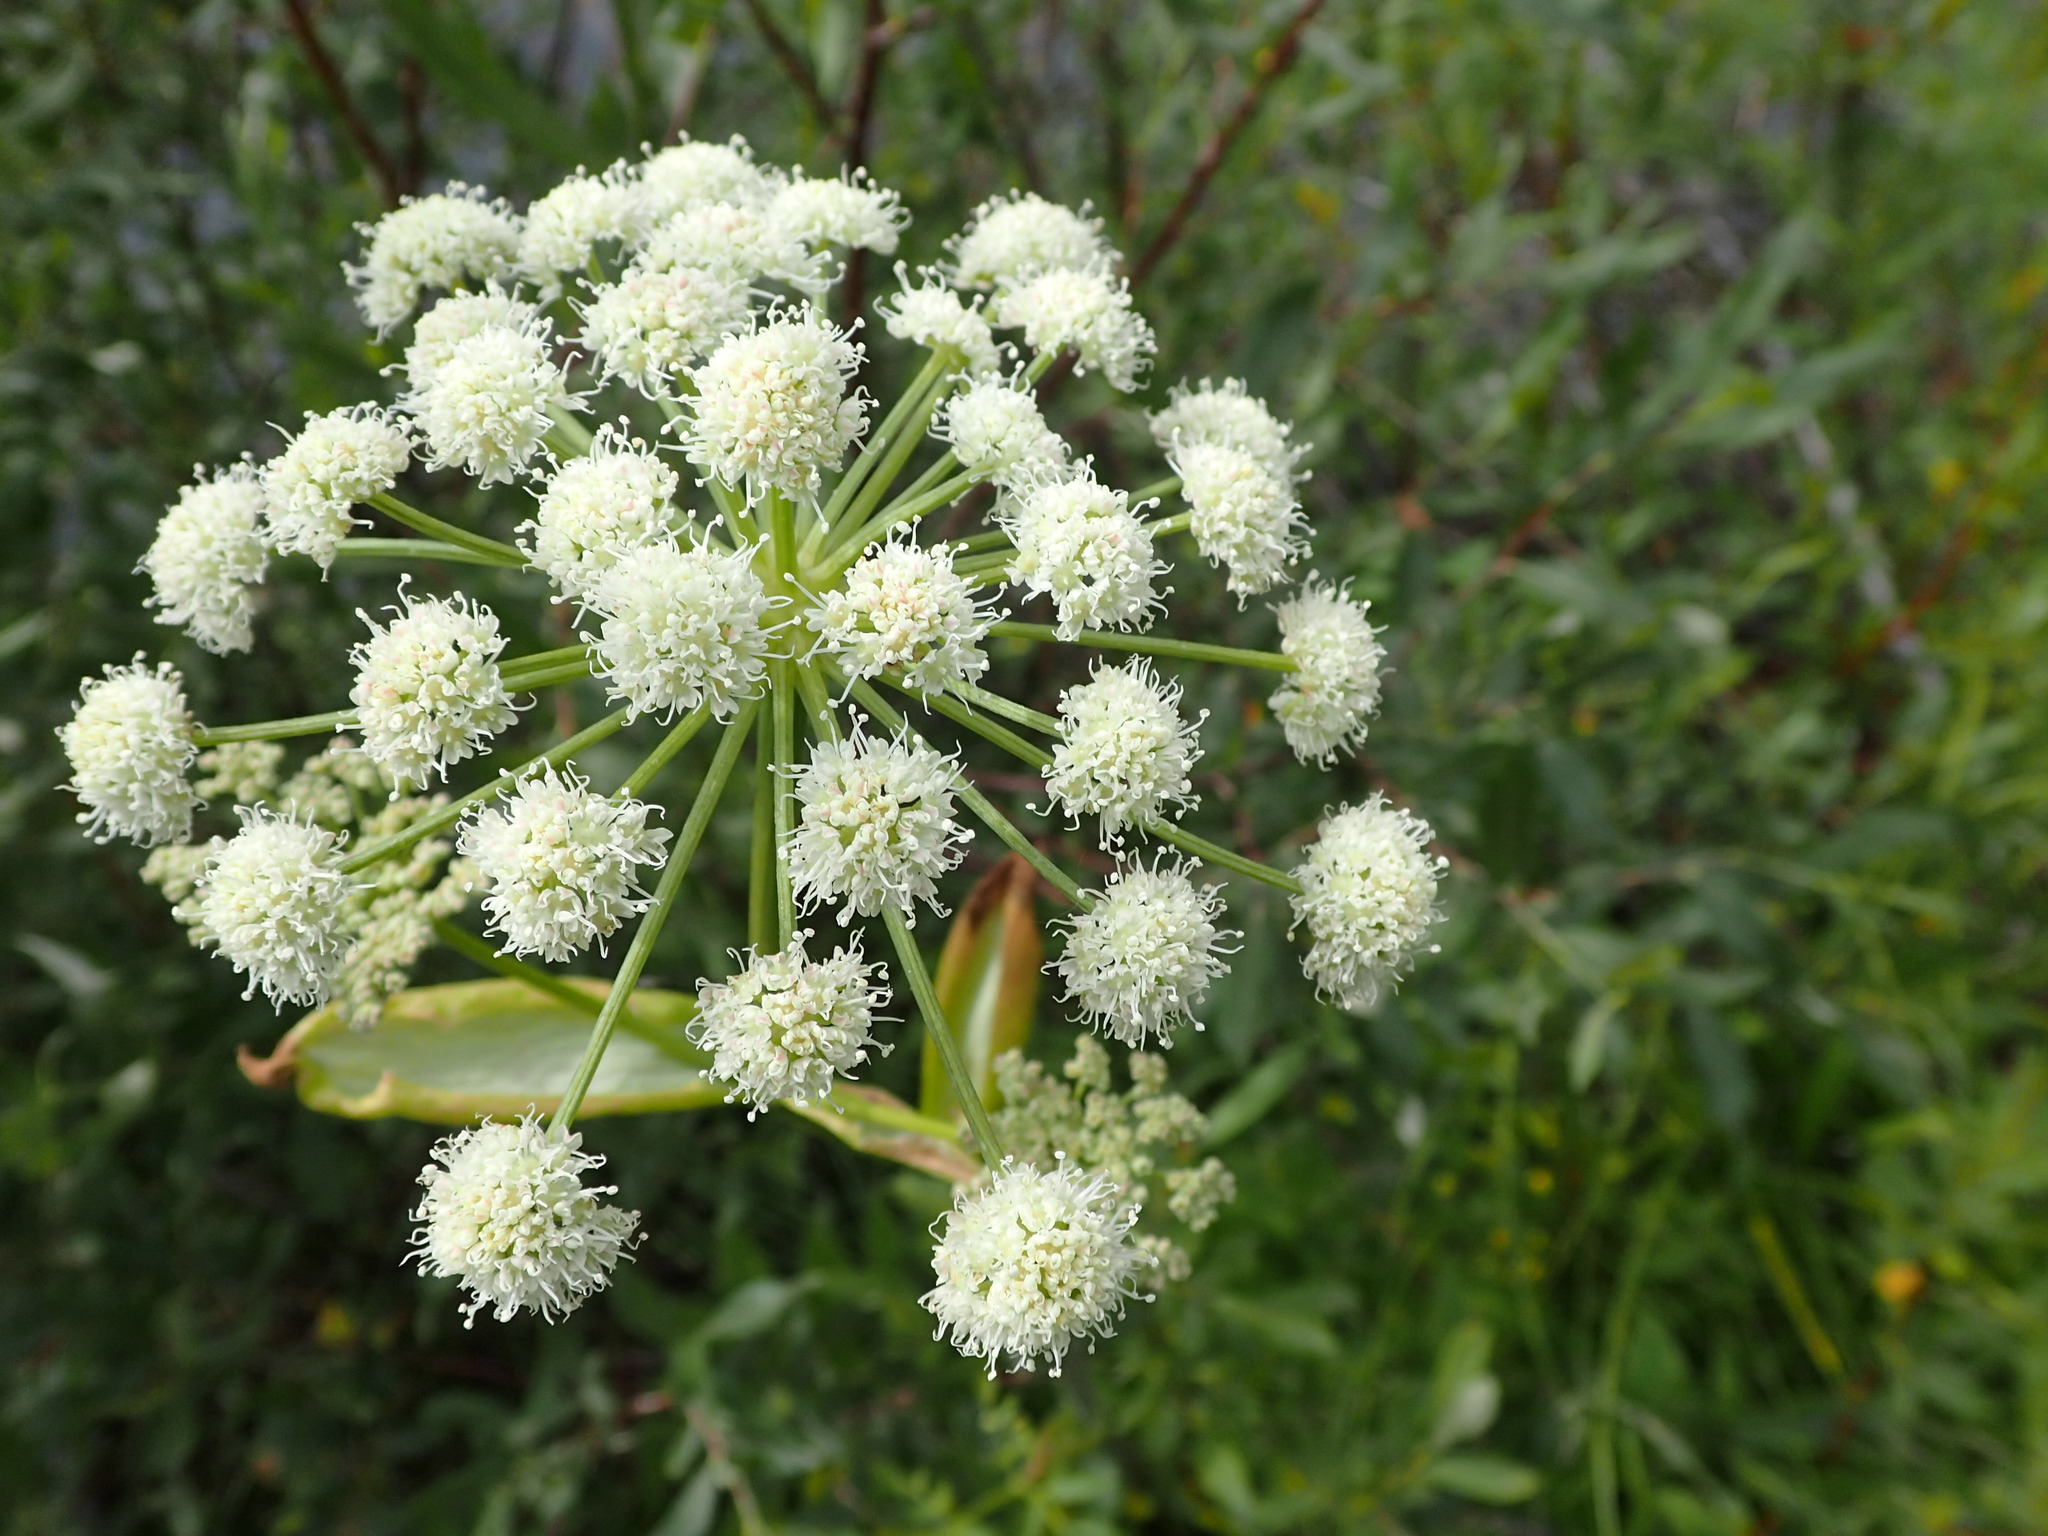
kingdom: Plantae
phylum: Tracheophyta
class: Magnoliopsida
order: Apiales
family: Apiaceae
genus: Angelica
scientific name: Angelica arguta
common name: Lyall's angelica
